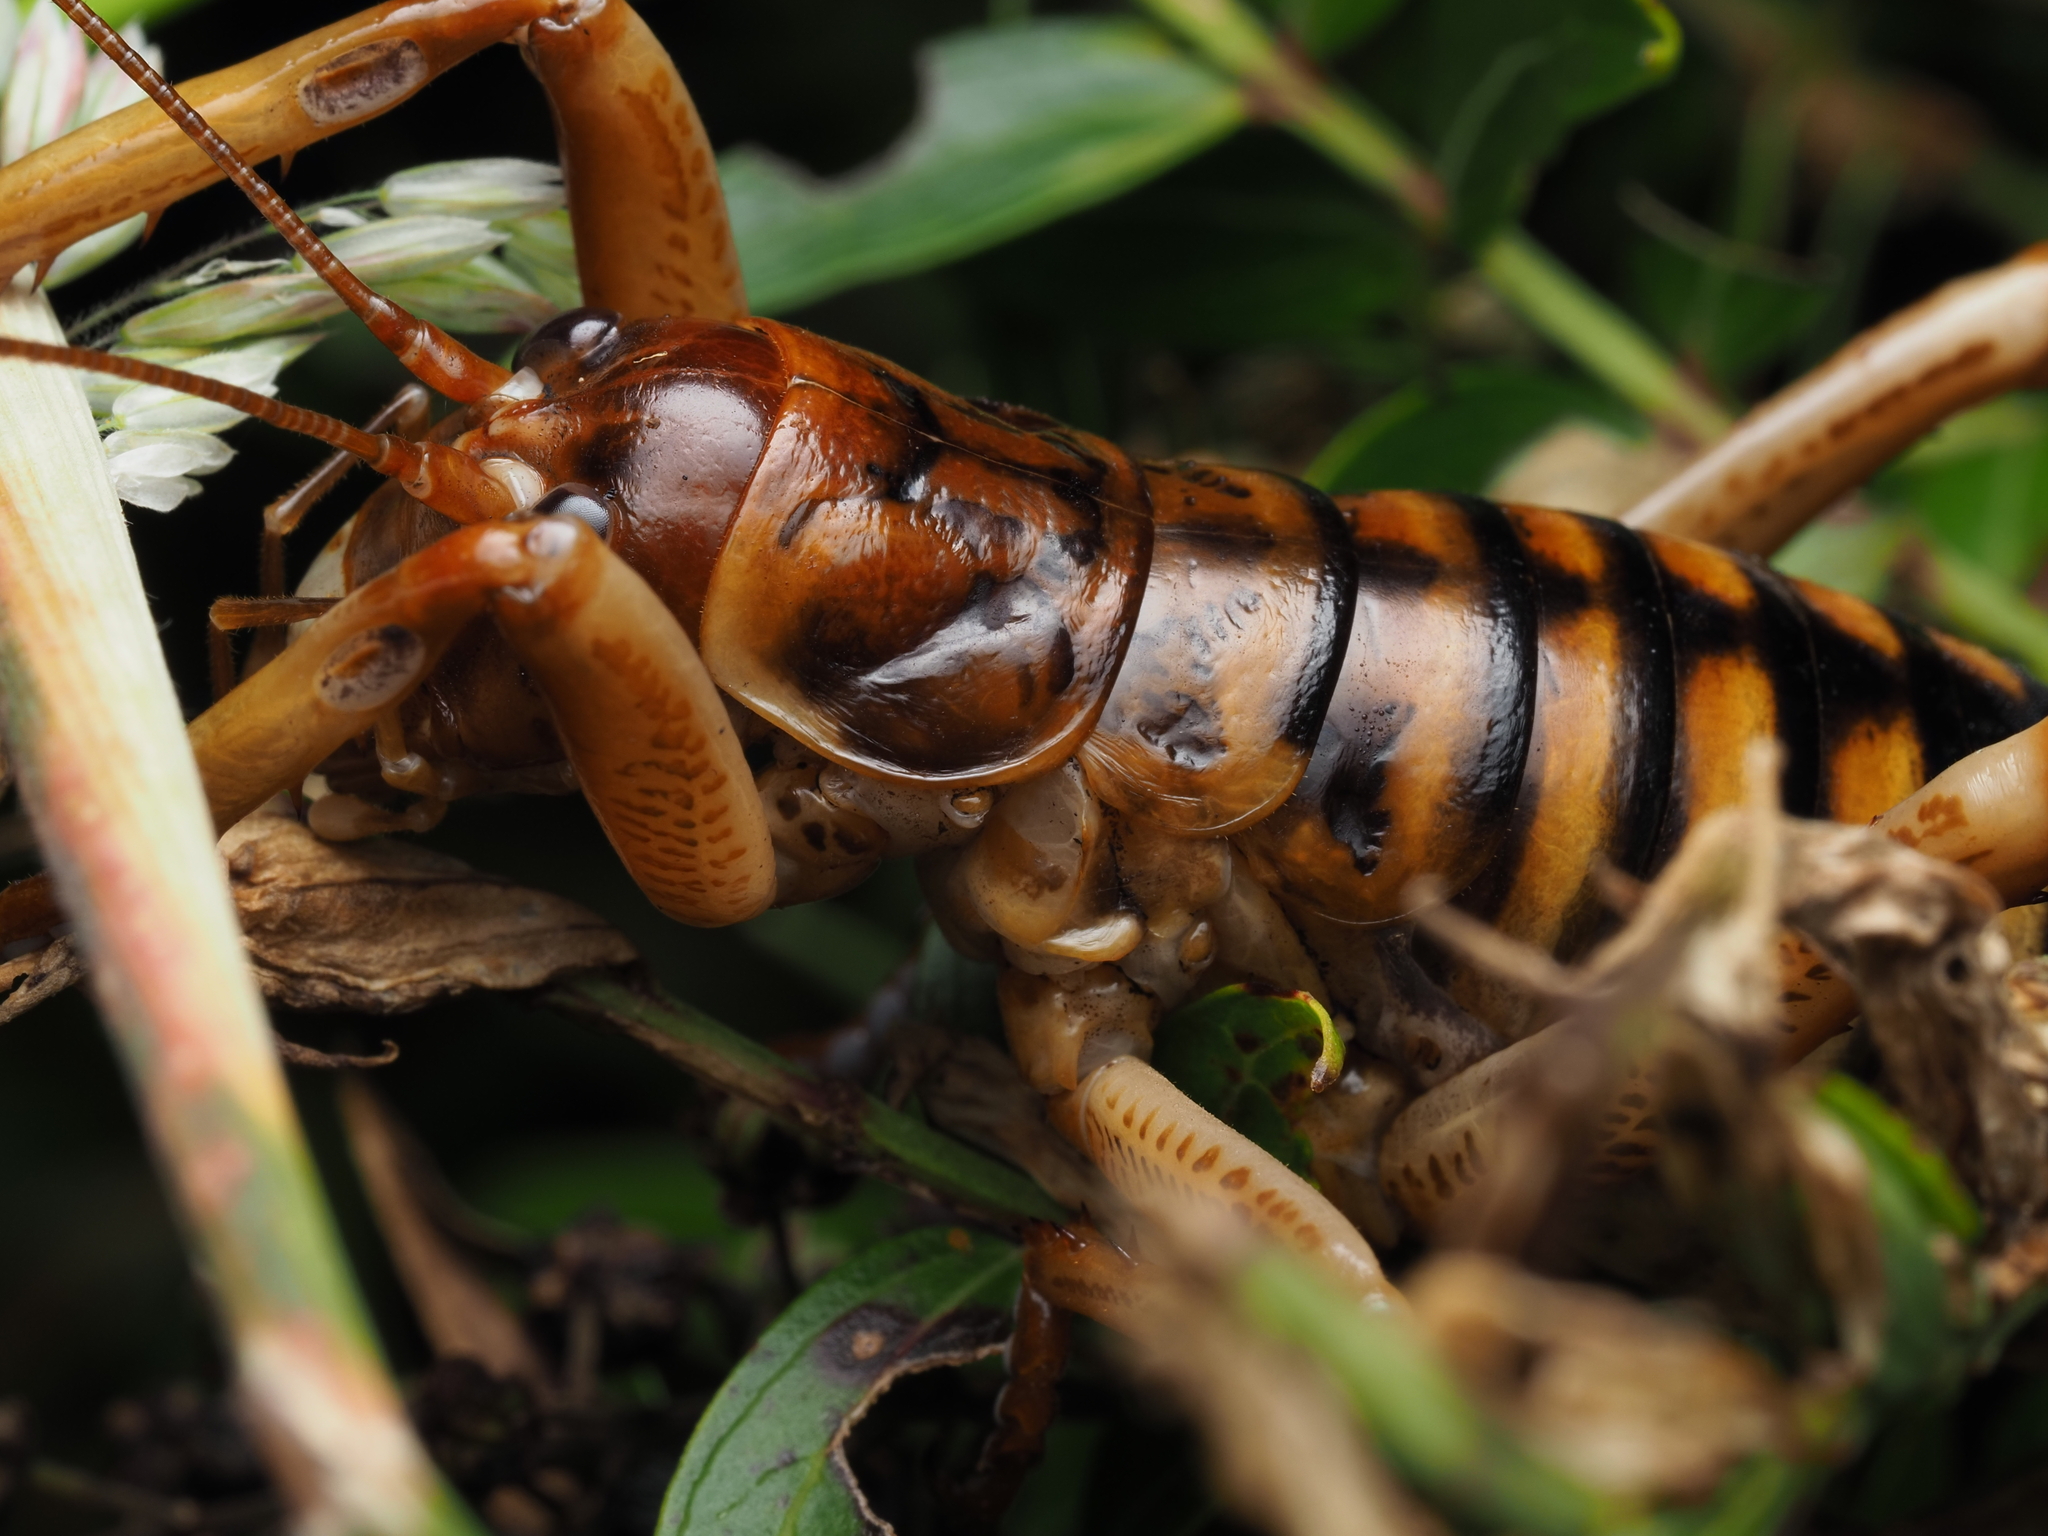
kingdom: Animalia
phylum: Arthropoda
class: Insecta
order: Orthoptera
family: Anostostomatidae
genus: Hemideina
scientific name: Hemideina crassidens
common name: Wellington tree weta
